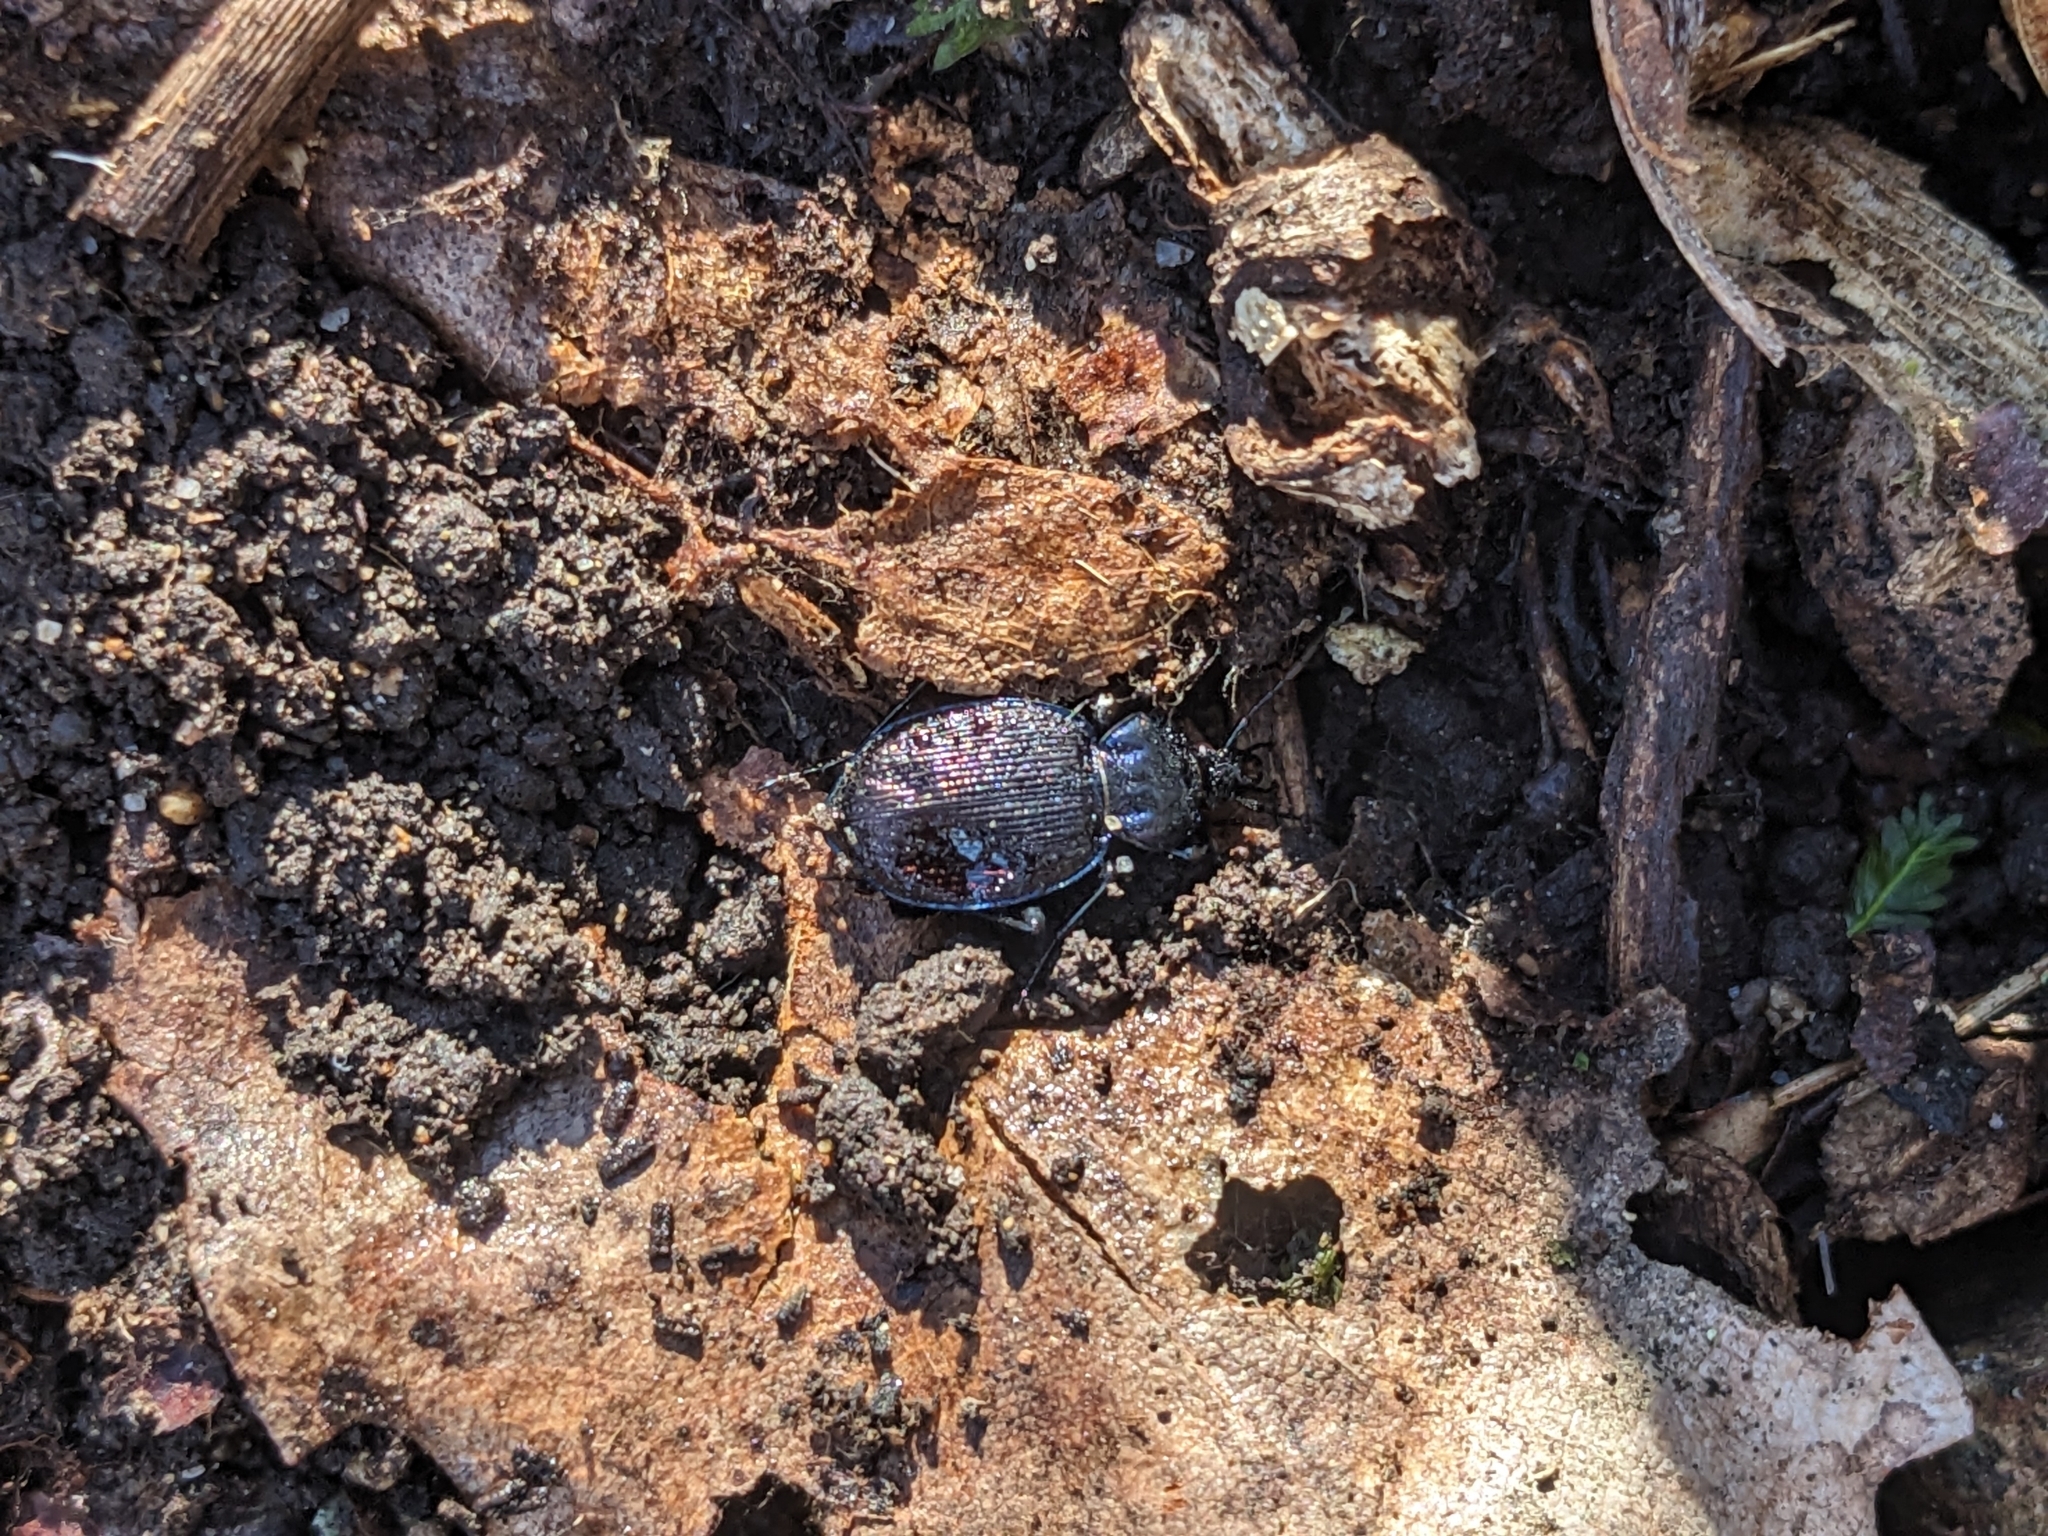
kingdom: Animalia
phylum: Arthropoda
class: Insecta
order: Coleoptera
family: Carabidae
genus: Sphaeroderus
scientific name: Sphaeroderus stenostomus
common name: Small snail-eating ground beetle
